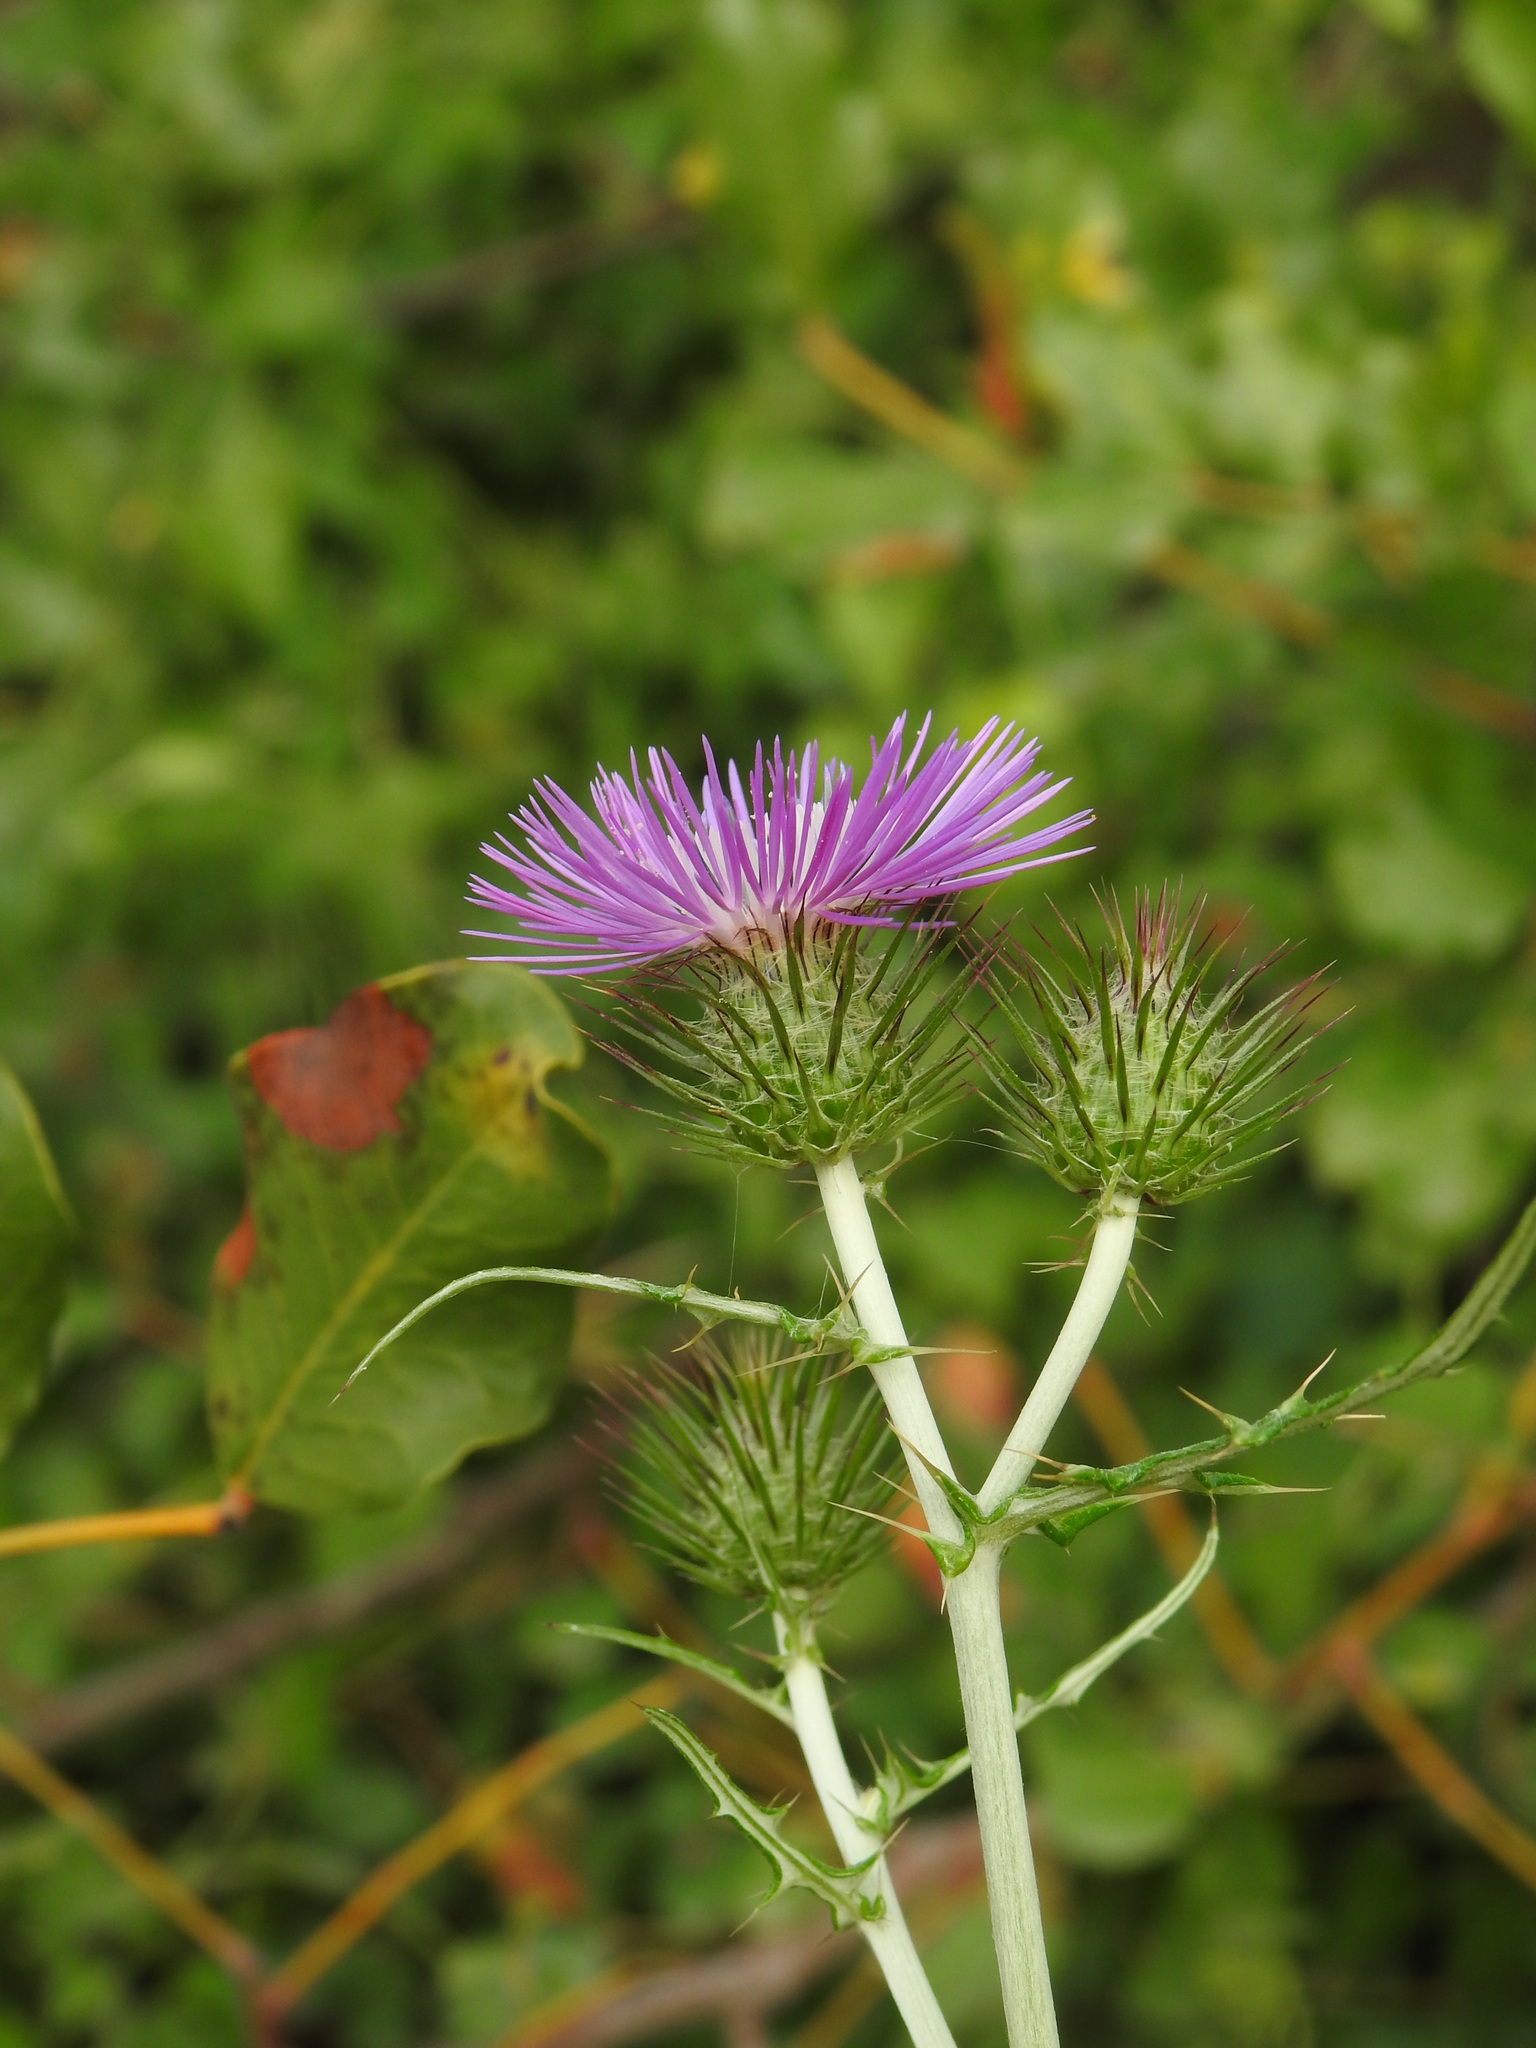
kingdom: Plantae
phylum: Tracheophyta
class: Magnoliopsida
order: Asterales
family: Asteraceae
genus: Galactites
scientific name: Galactites tomentosa
